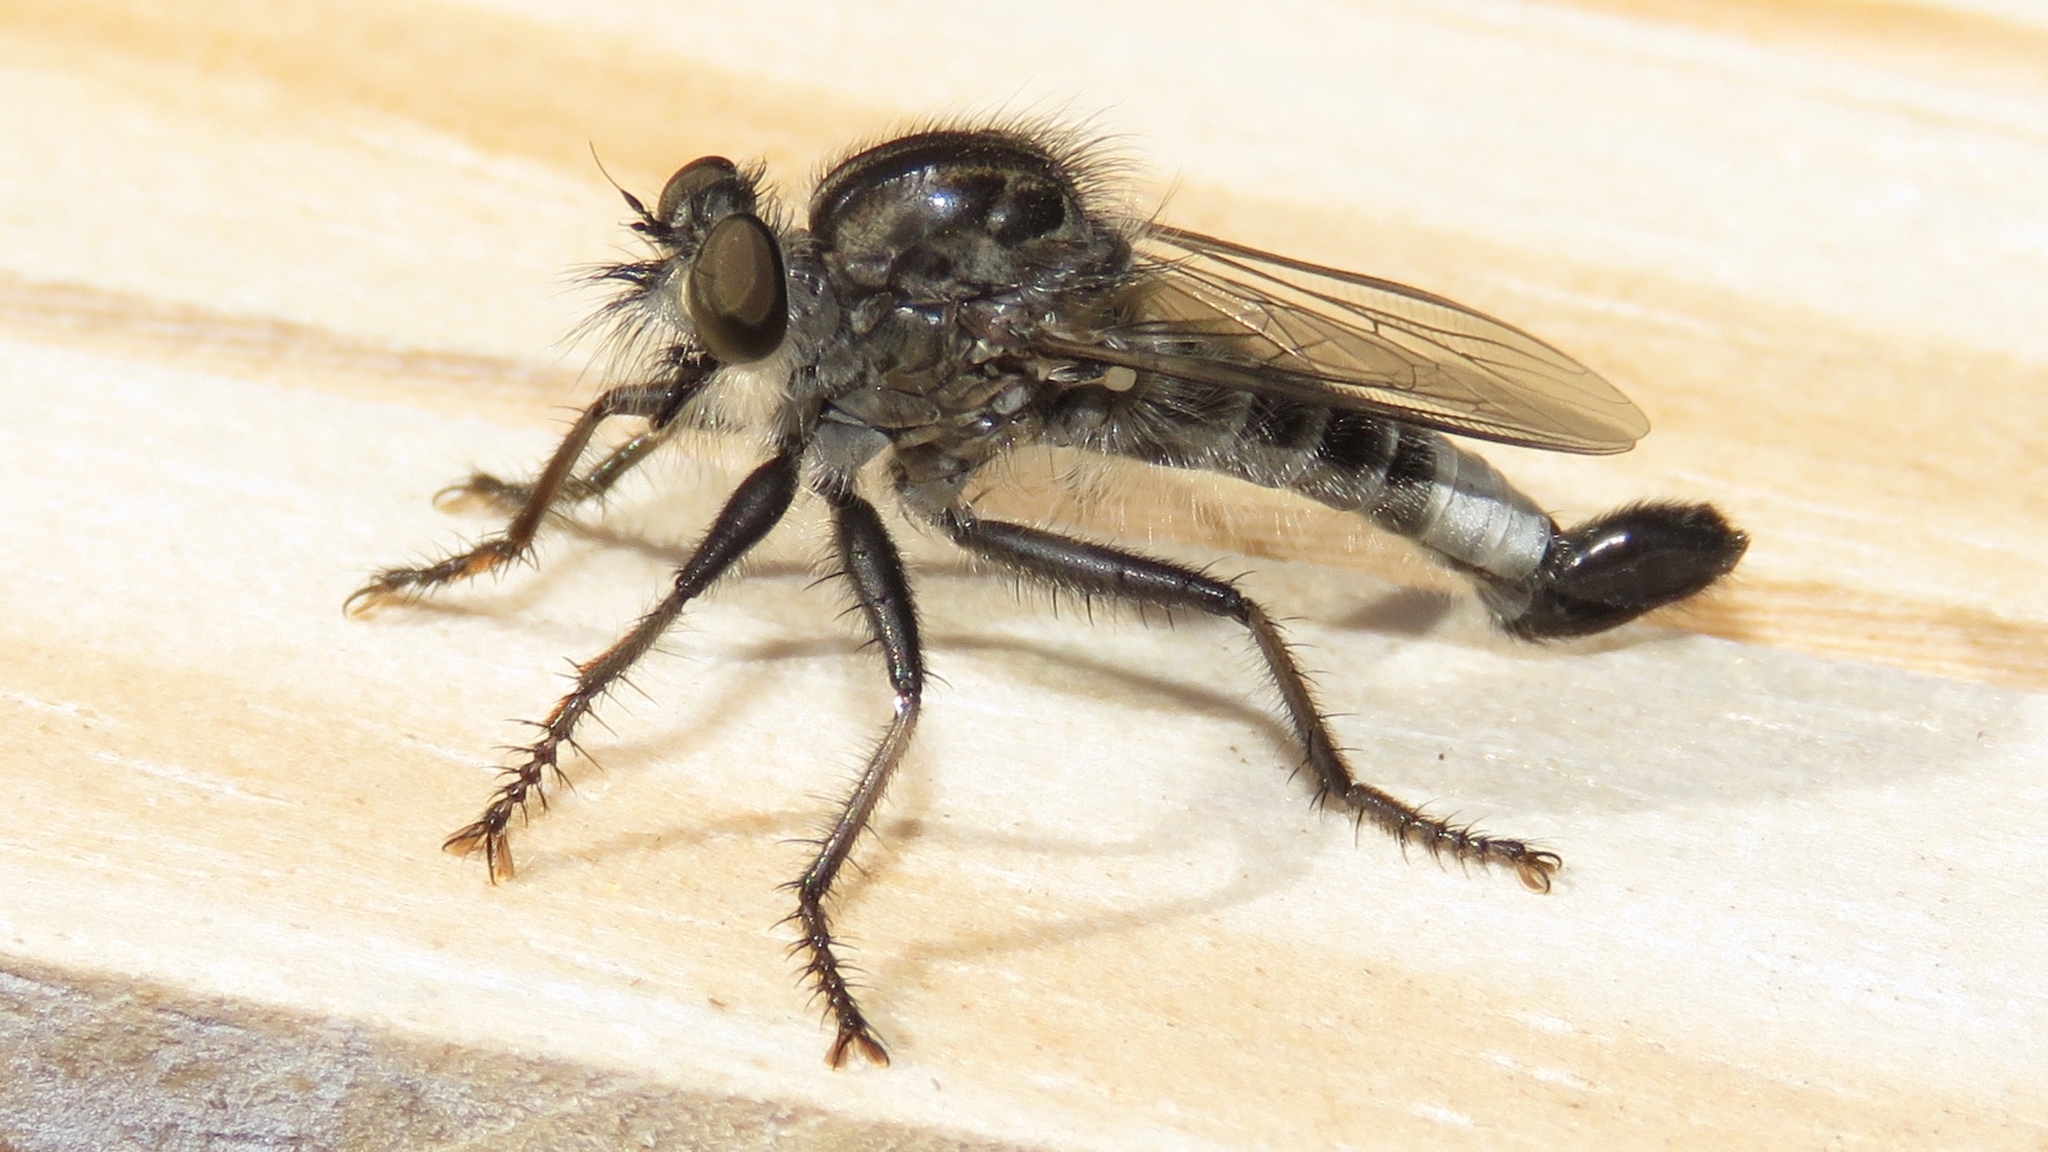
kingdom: Animalia
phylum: Arthropoda
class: Insecta
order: Diptera
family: Asilidae
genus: Efferia
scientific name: Efferia aestuans
